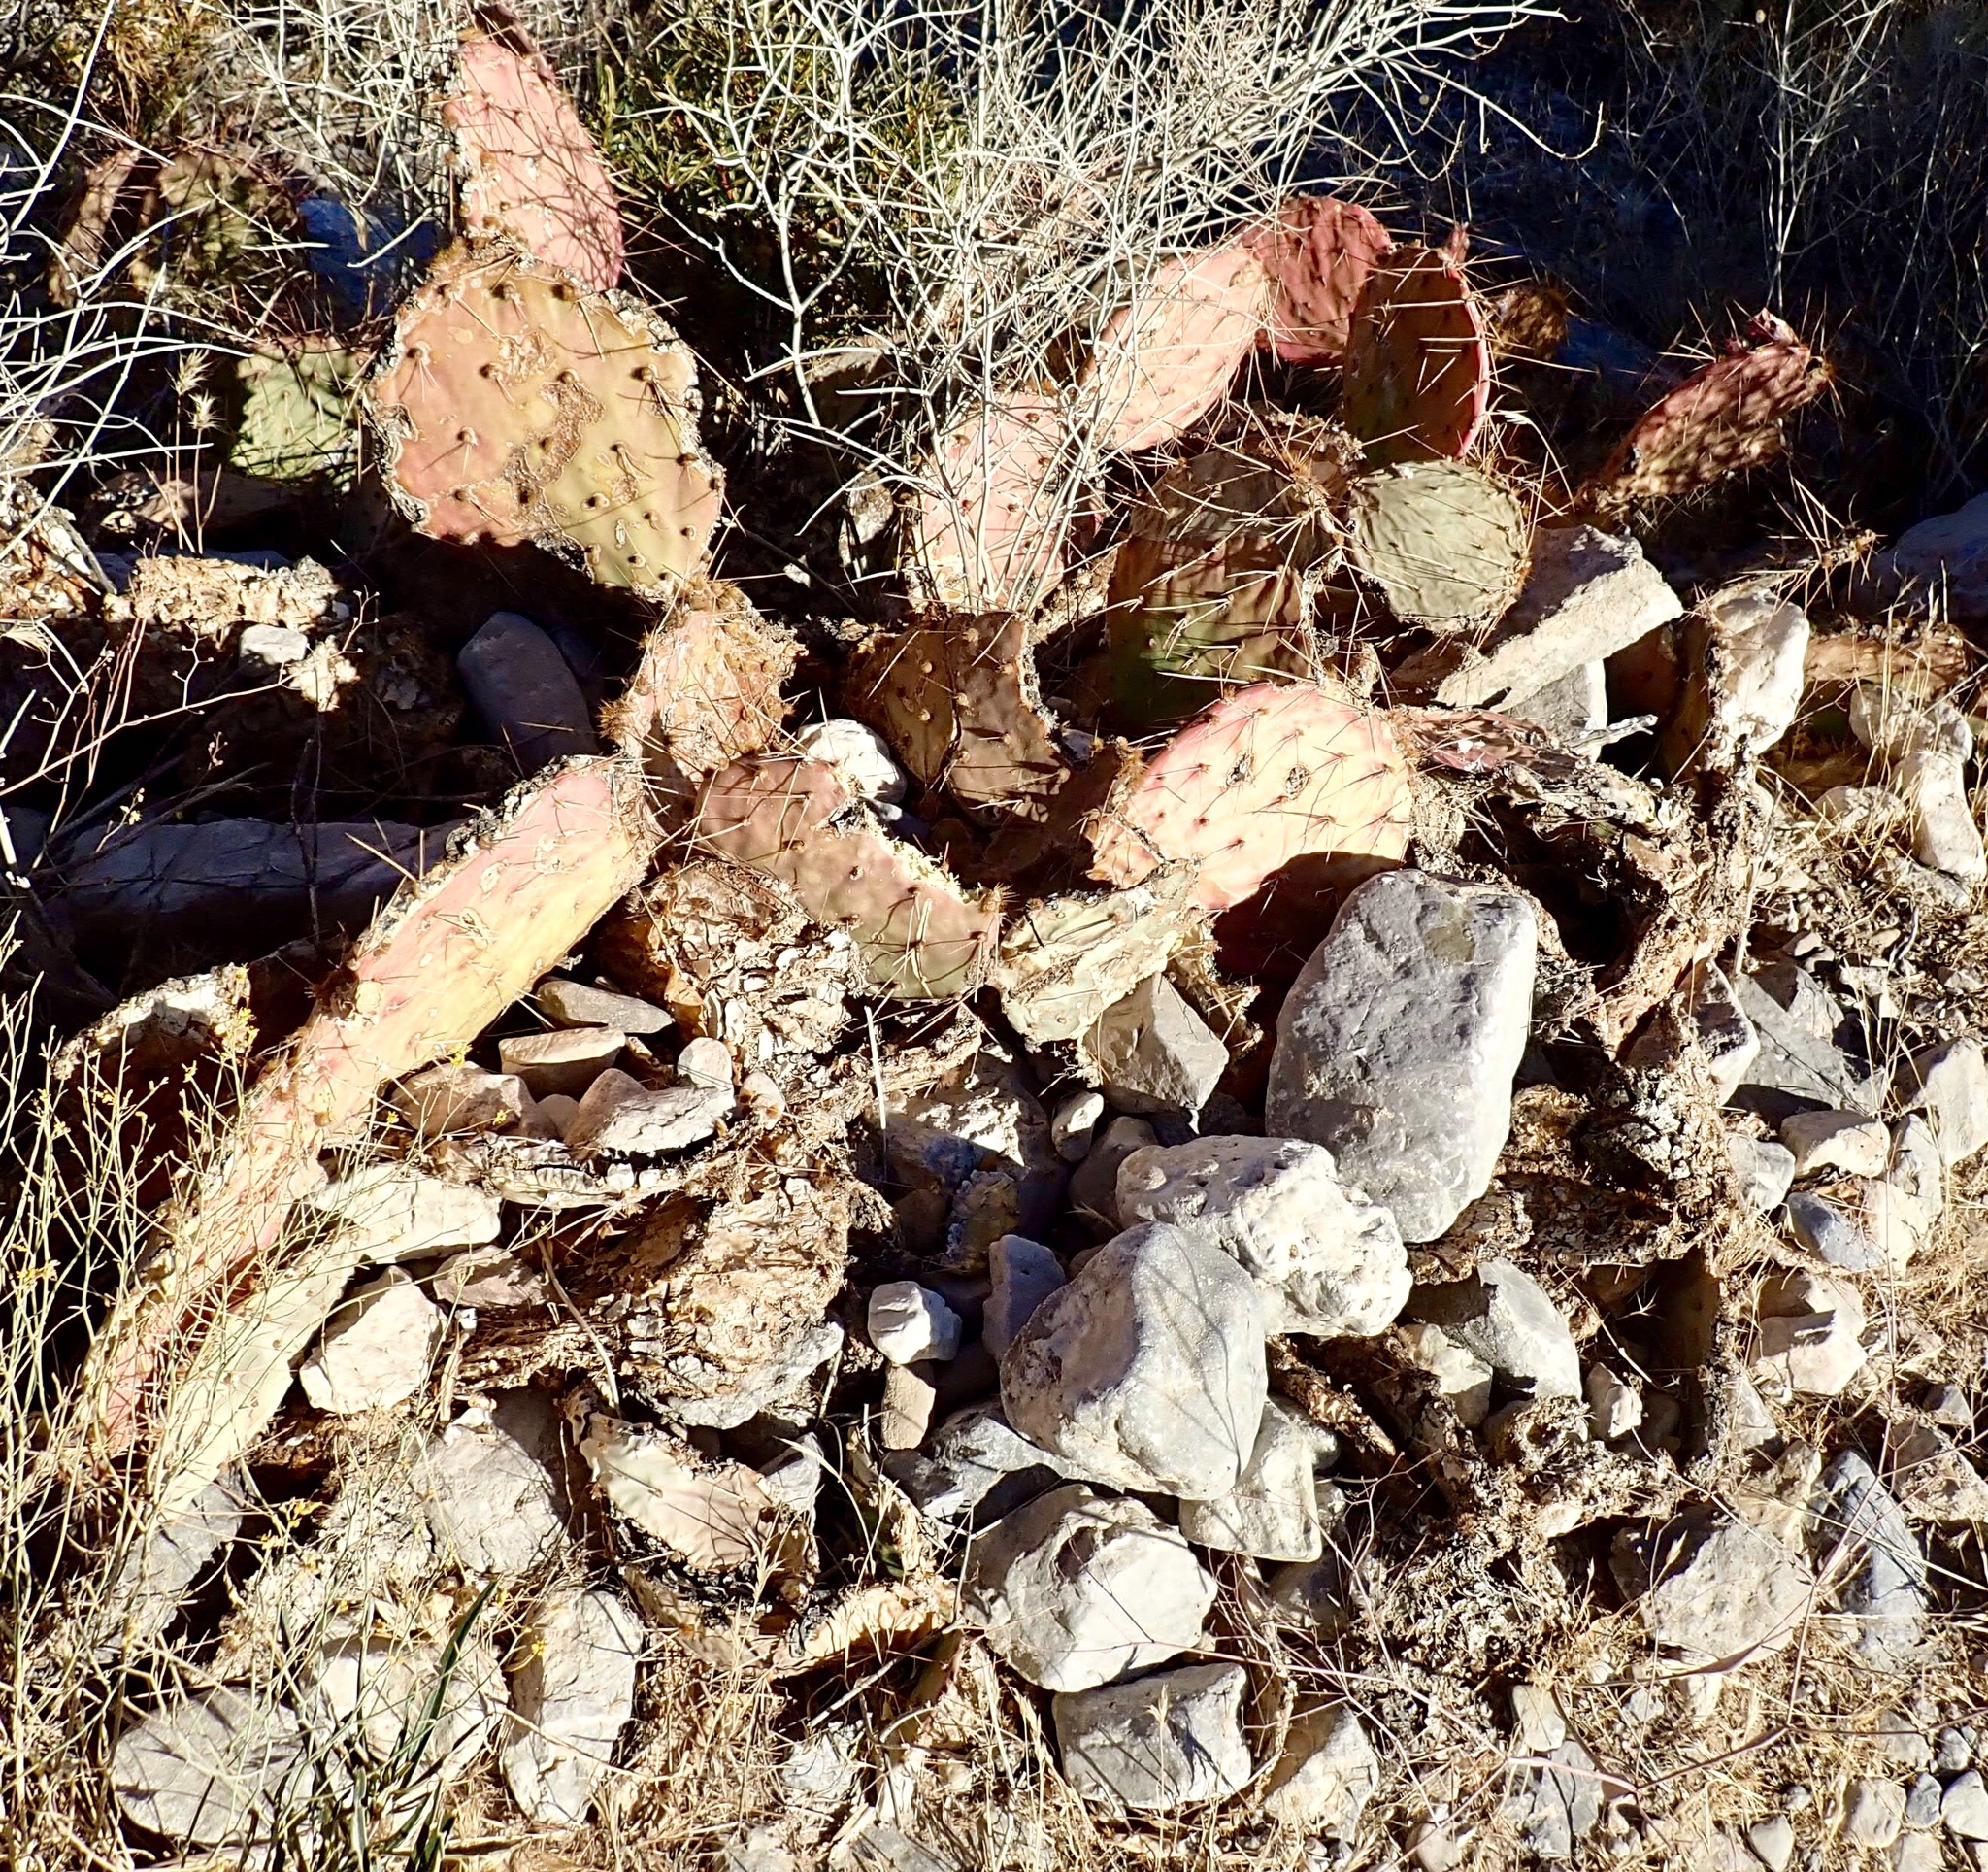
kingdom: Plantae
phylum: Tracheophyta
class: Magnoliopsida
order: Caryophyllales
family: Cactaceae
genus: Opuntia
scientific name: Opuntia phaeacantha
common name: New mexico prickly-pear
